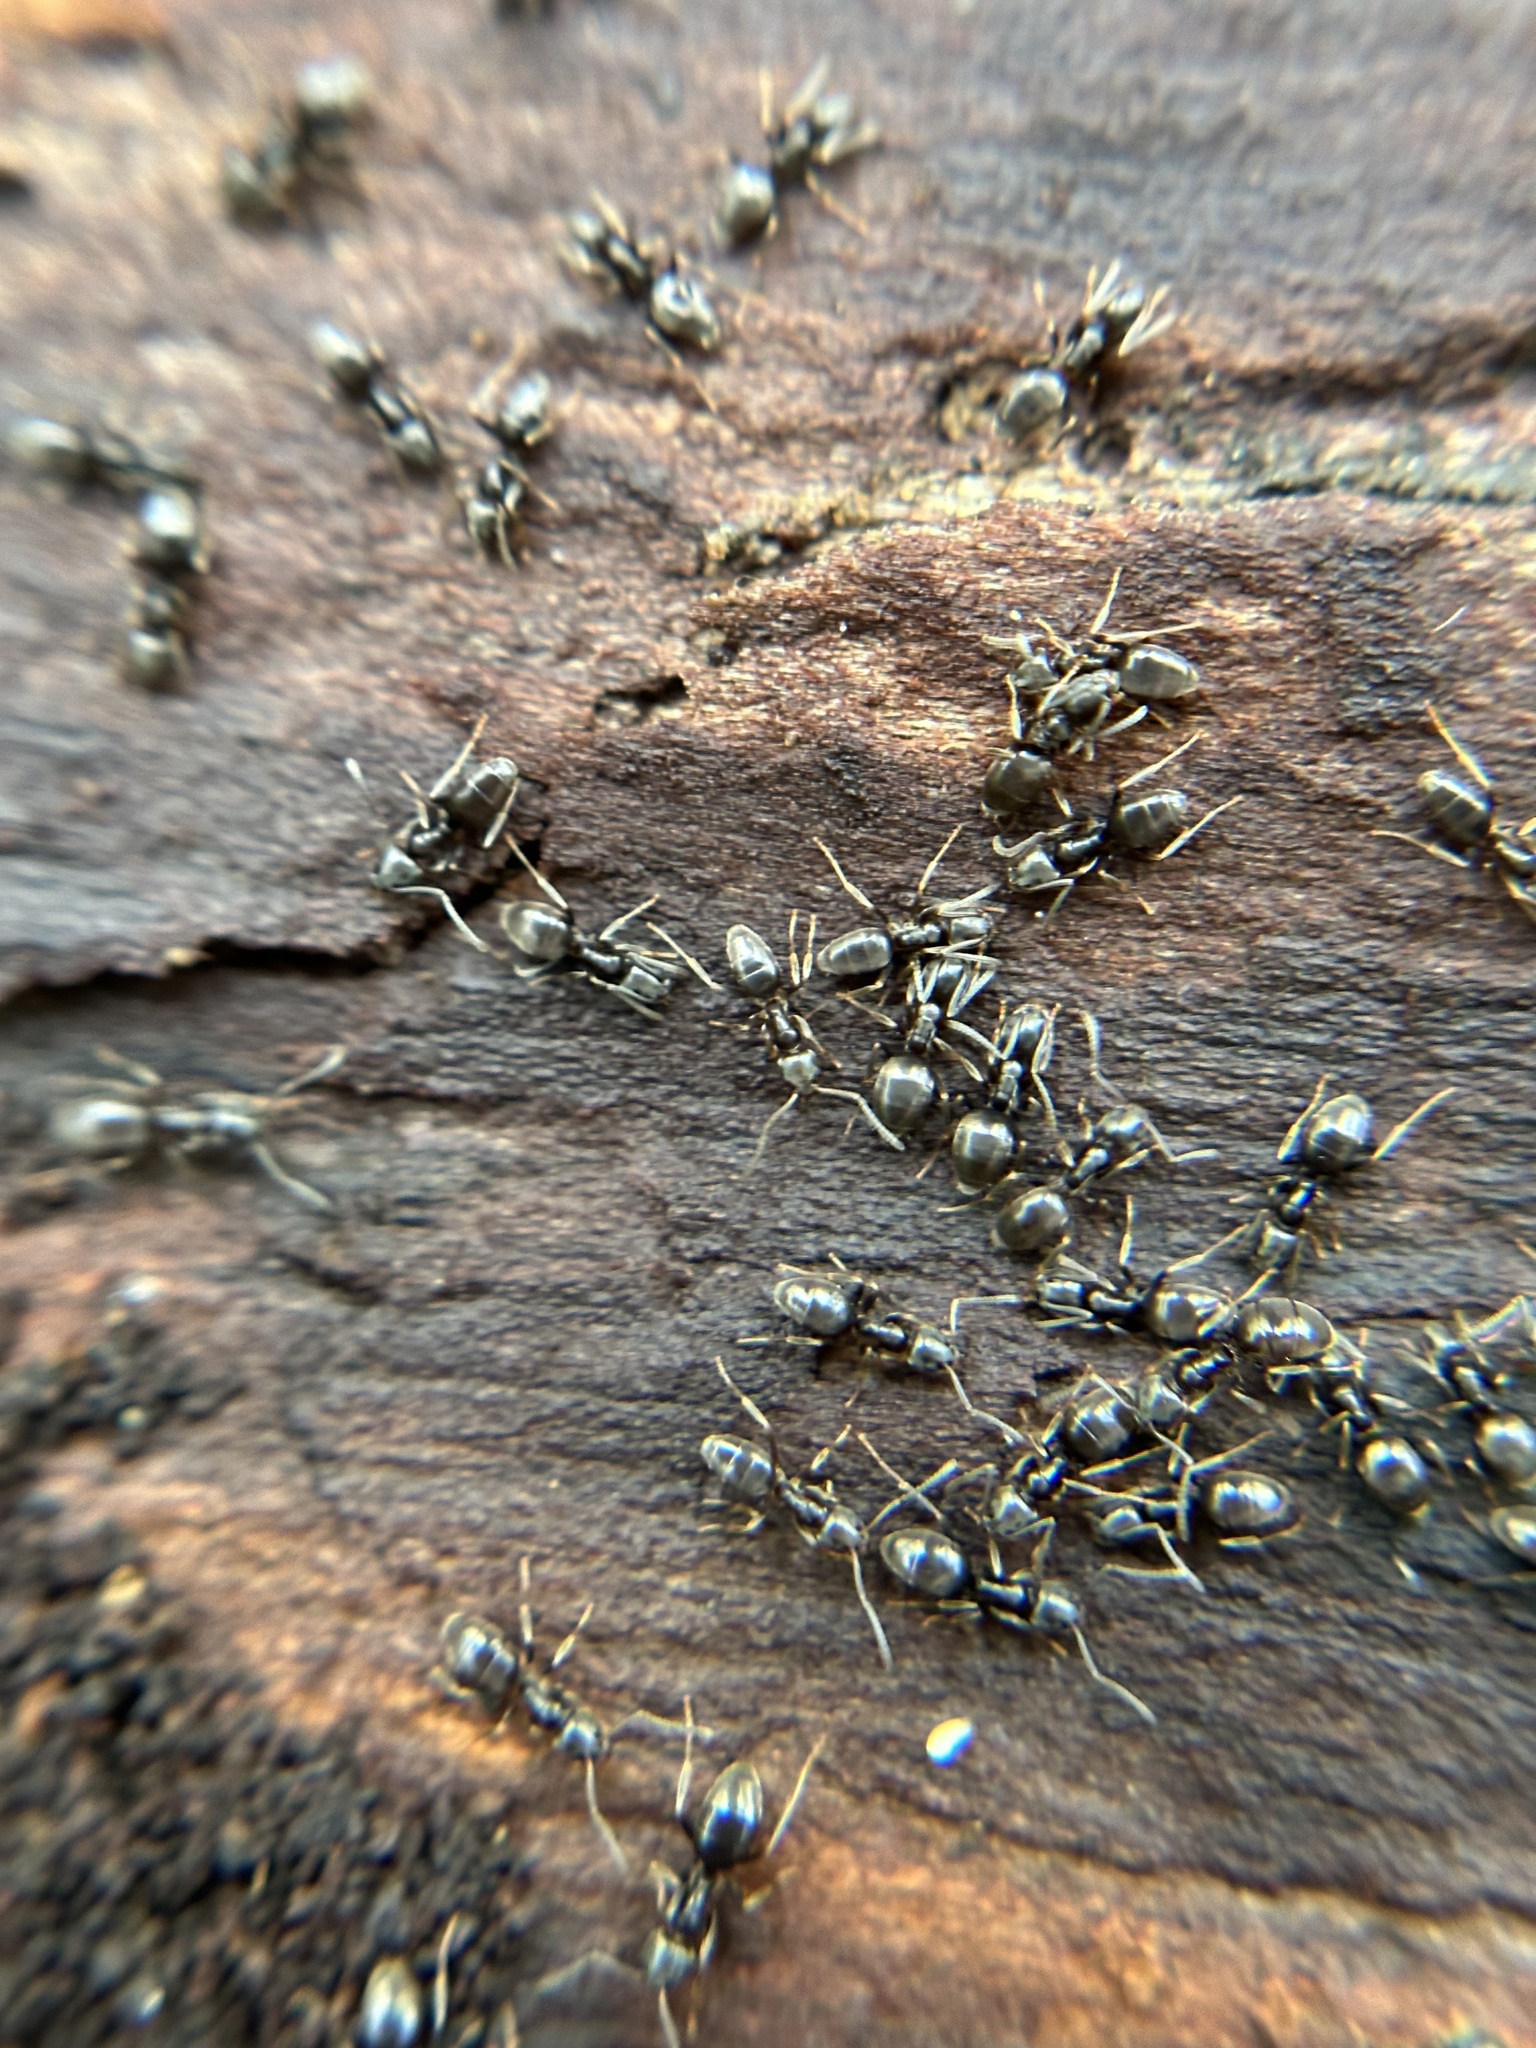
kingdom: Animalia
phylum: Arthropoda
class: Insecta
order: Hymenoptera
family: Formicidae
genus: Tapinoma
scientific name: Tapinoma sessile
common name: Odorous house ant
